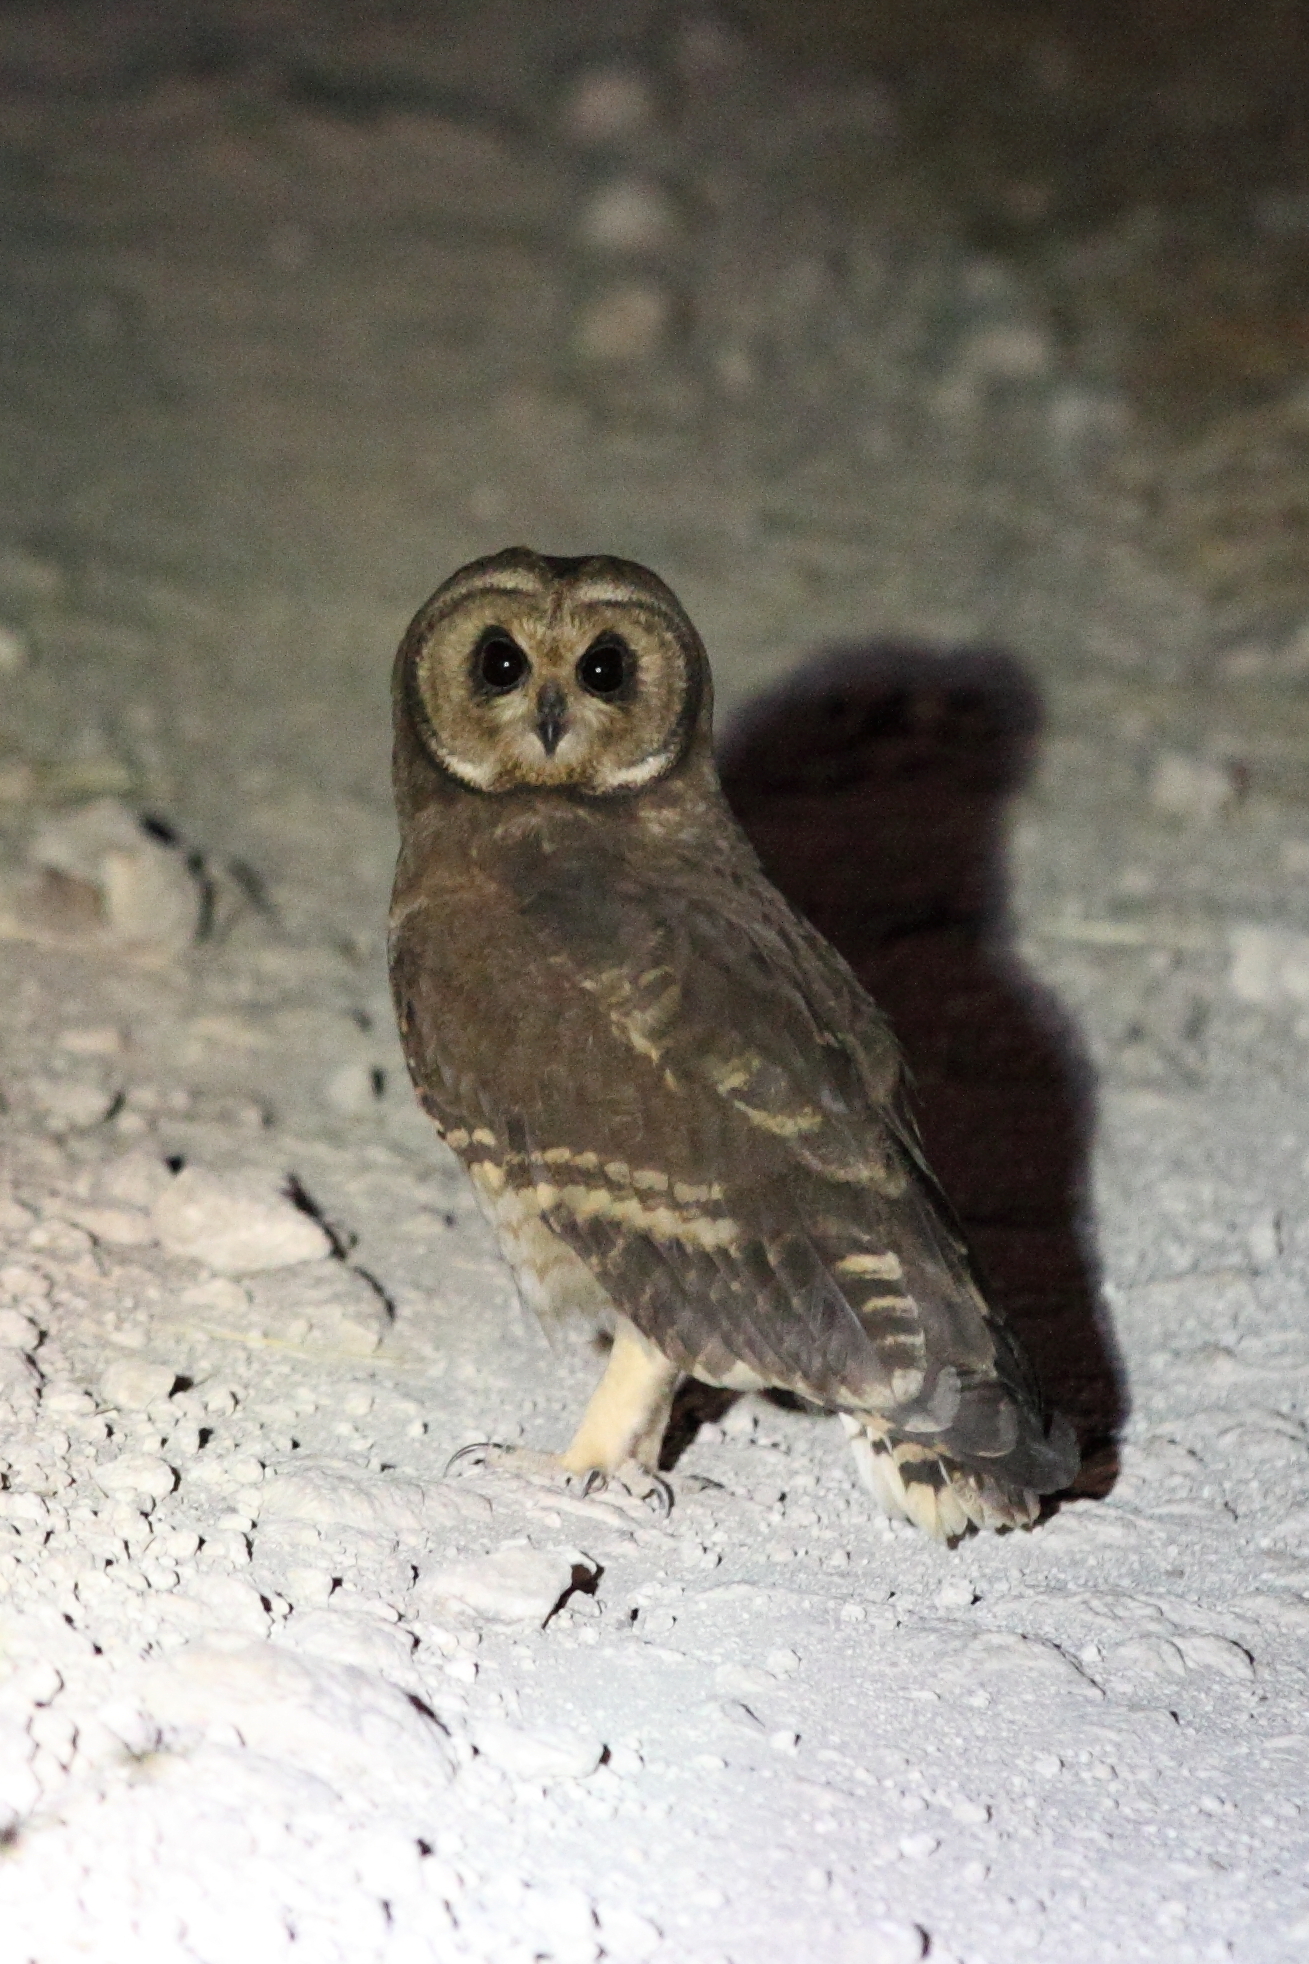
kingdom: Animalia
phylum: Chordata
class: Aves
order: Strigiformes
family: Strigidae
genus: Asio
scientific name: Asio capensis
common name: Marsh owl
